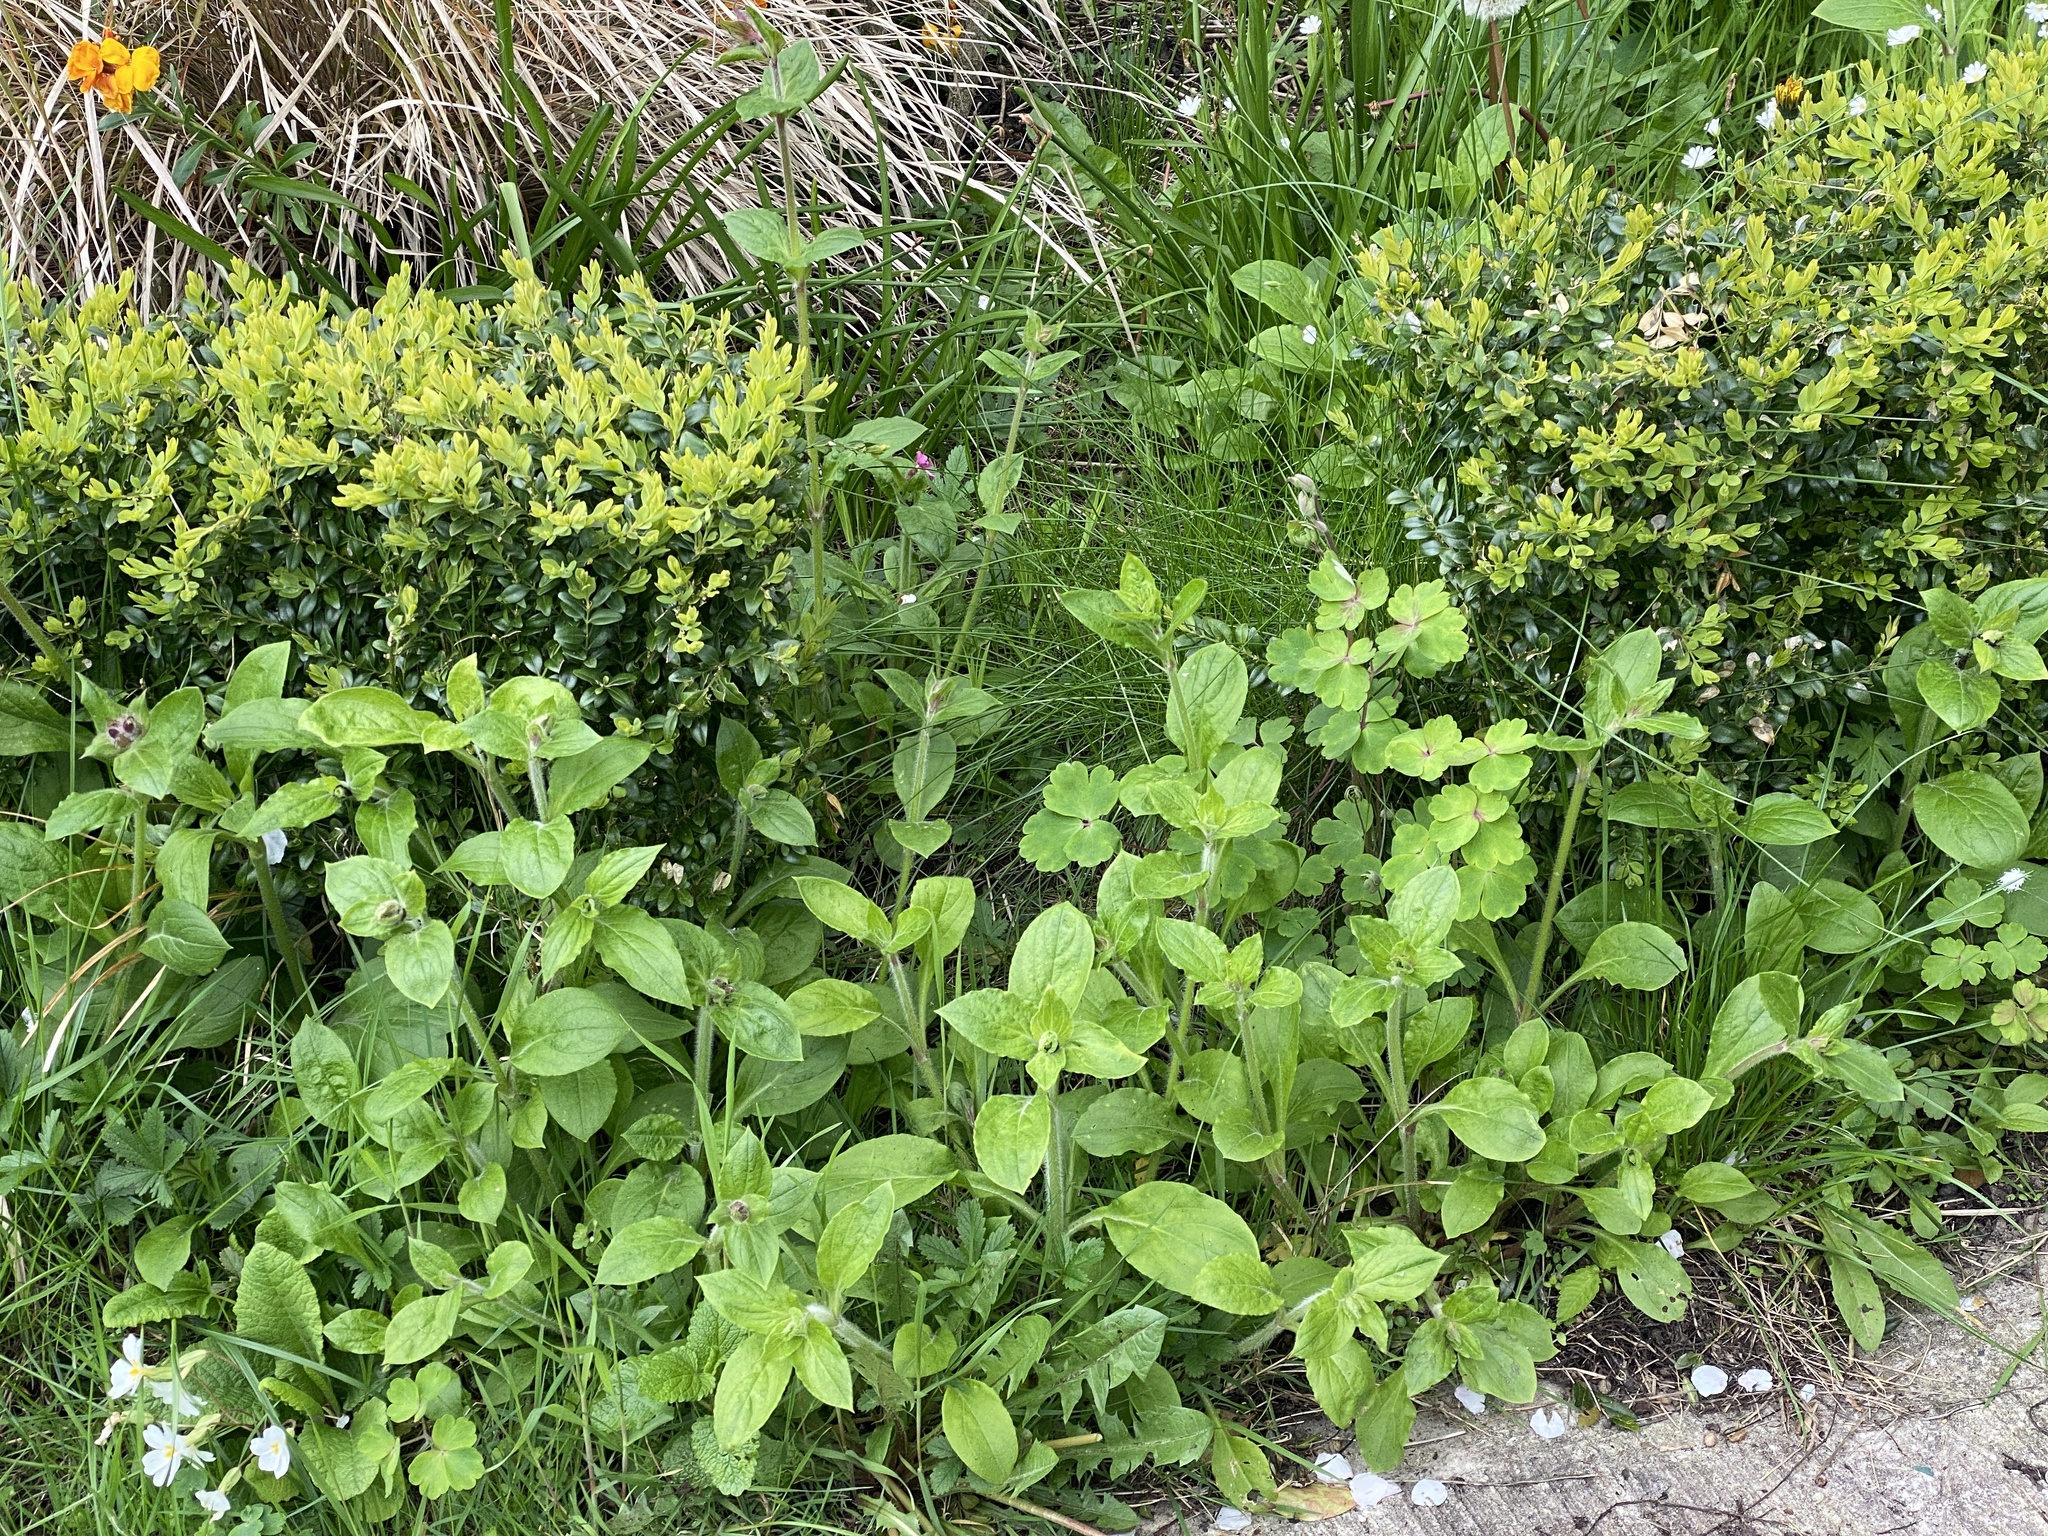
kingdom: Plantae
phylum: Tracheophyta
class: Magnoliopsida
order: Caryophyllales
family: Caryophyllaceae
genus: Silene
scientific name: Silene dioica
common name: Red campion
